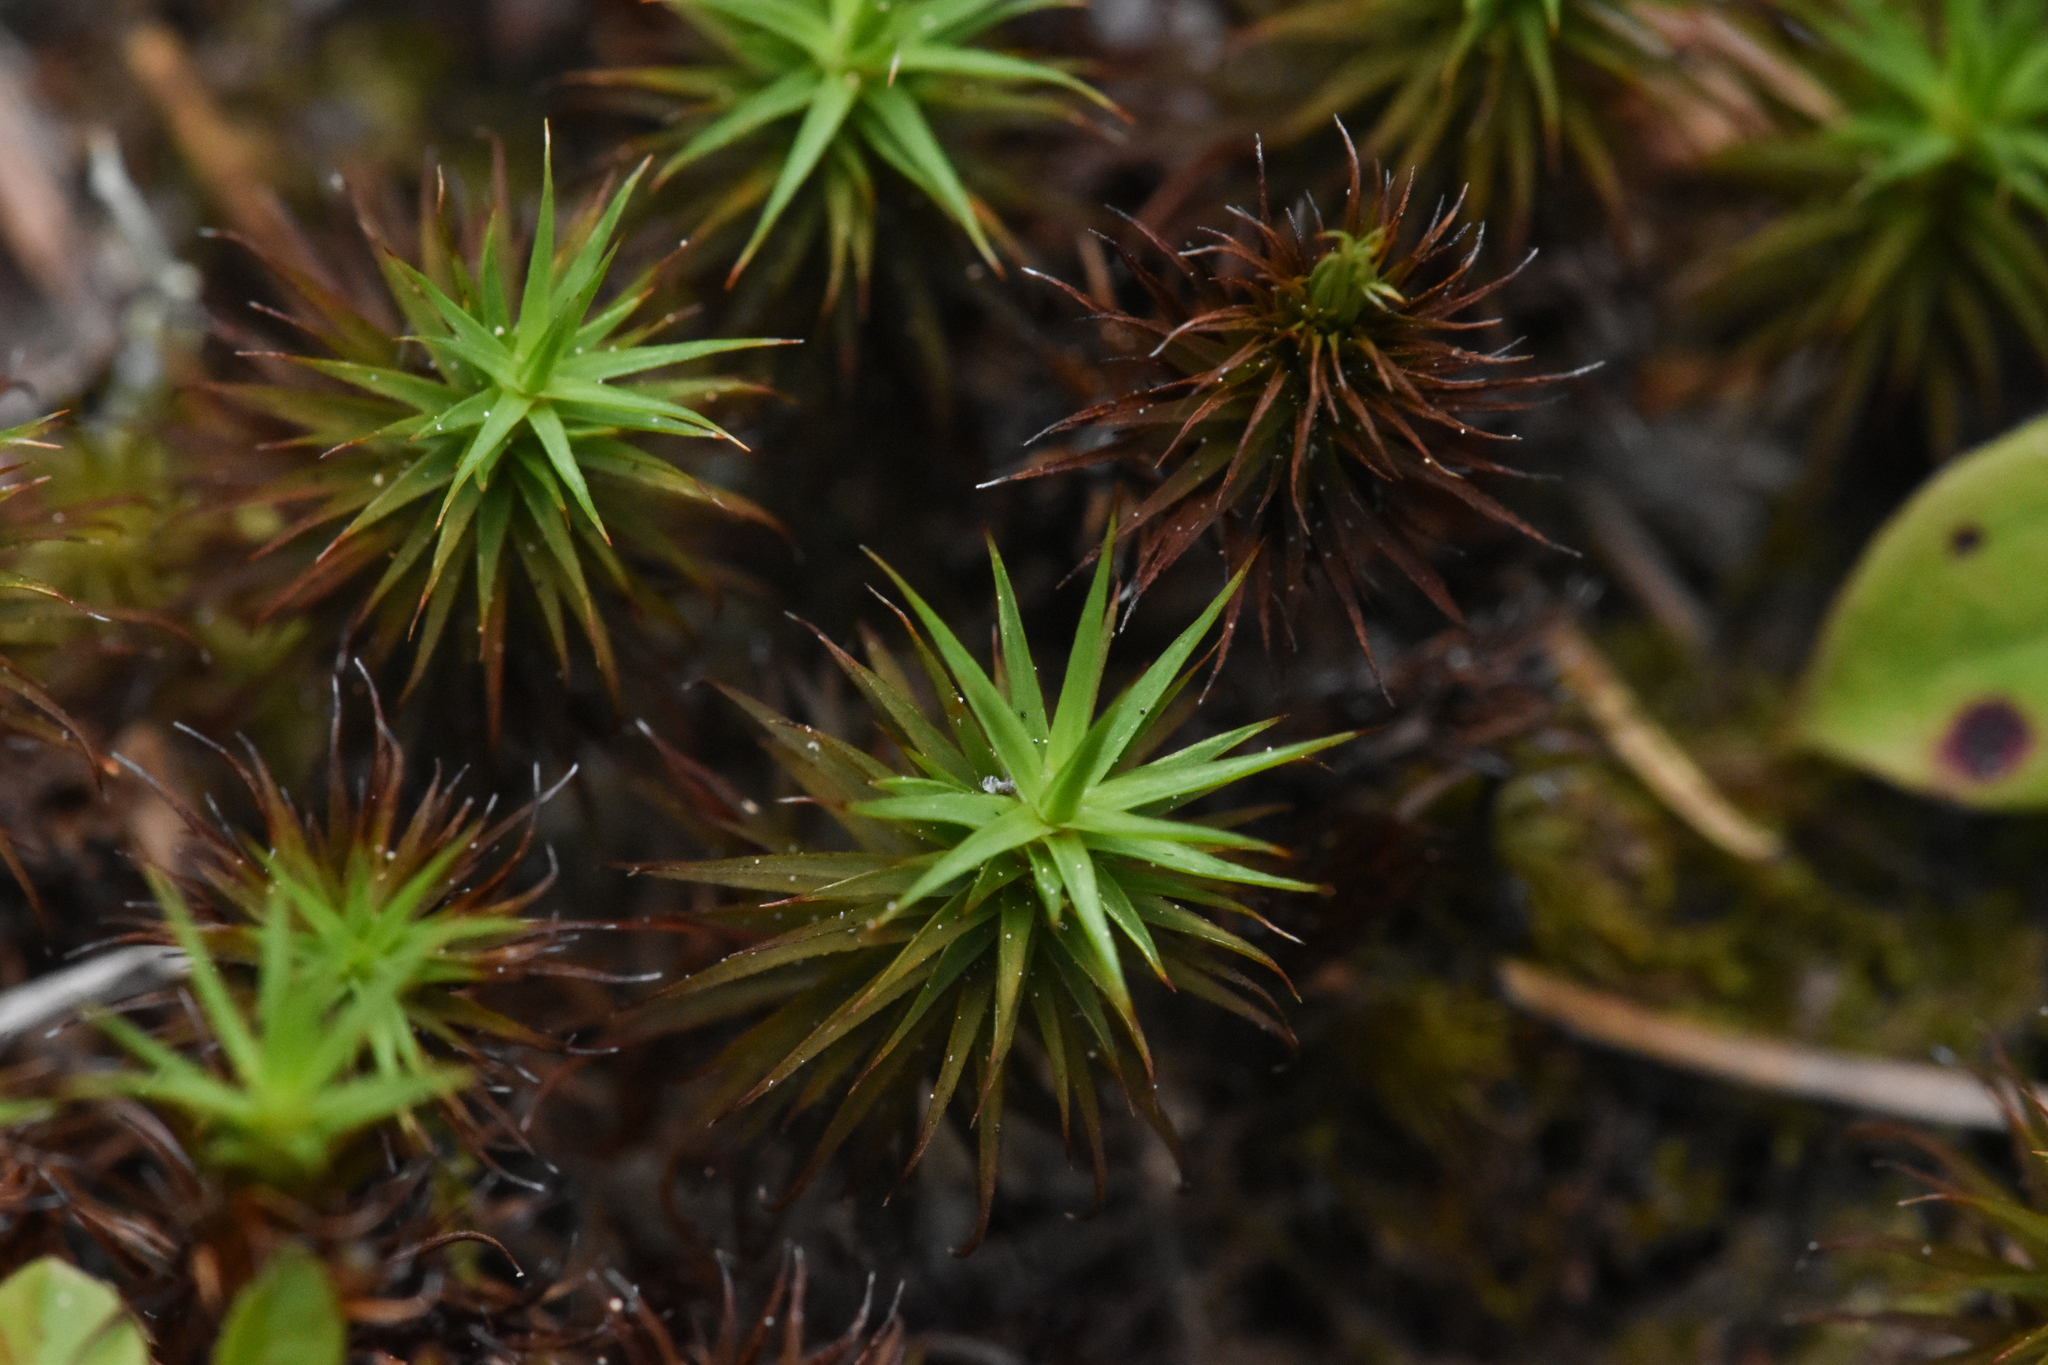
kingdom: Plantae
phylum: Bryophyta
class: Polytrichopsida
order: Polytrichales
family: Polytrichaceae
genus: Polytrichum
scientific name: Polytrichum juniperinum
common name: Juniper haircap moss
